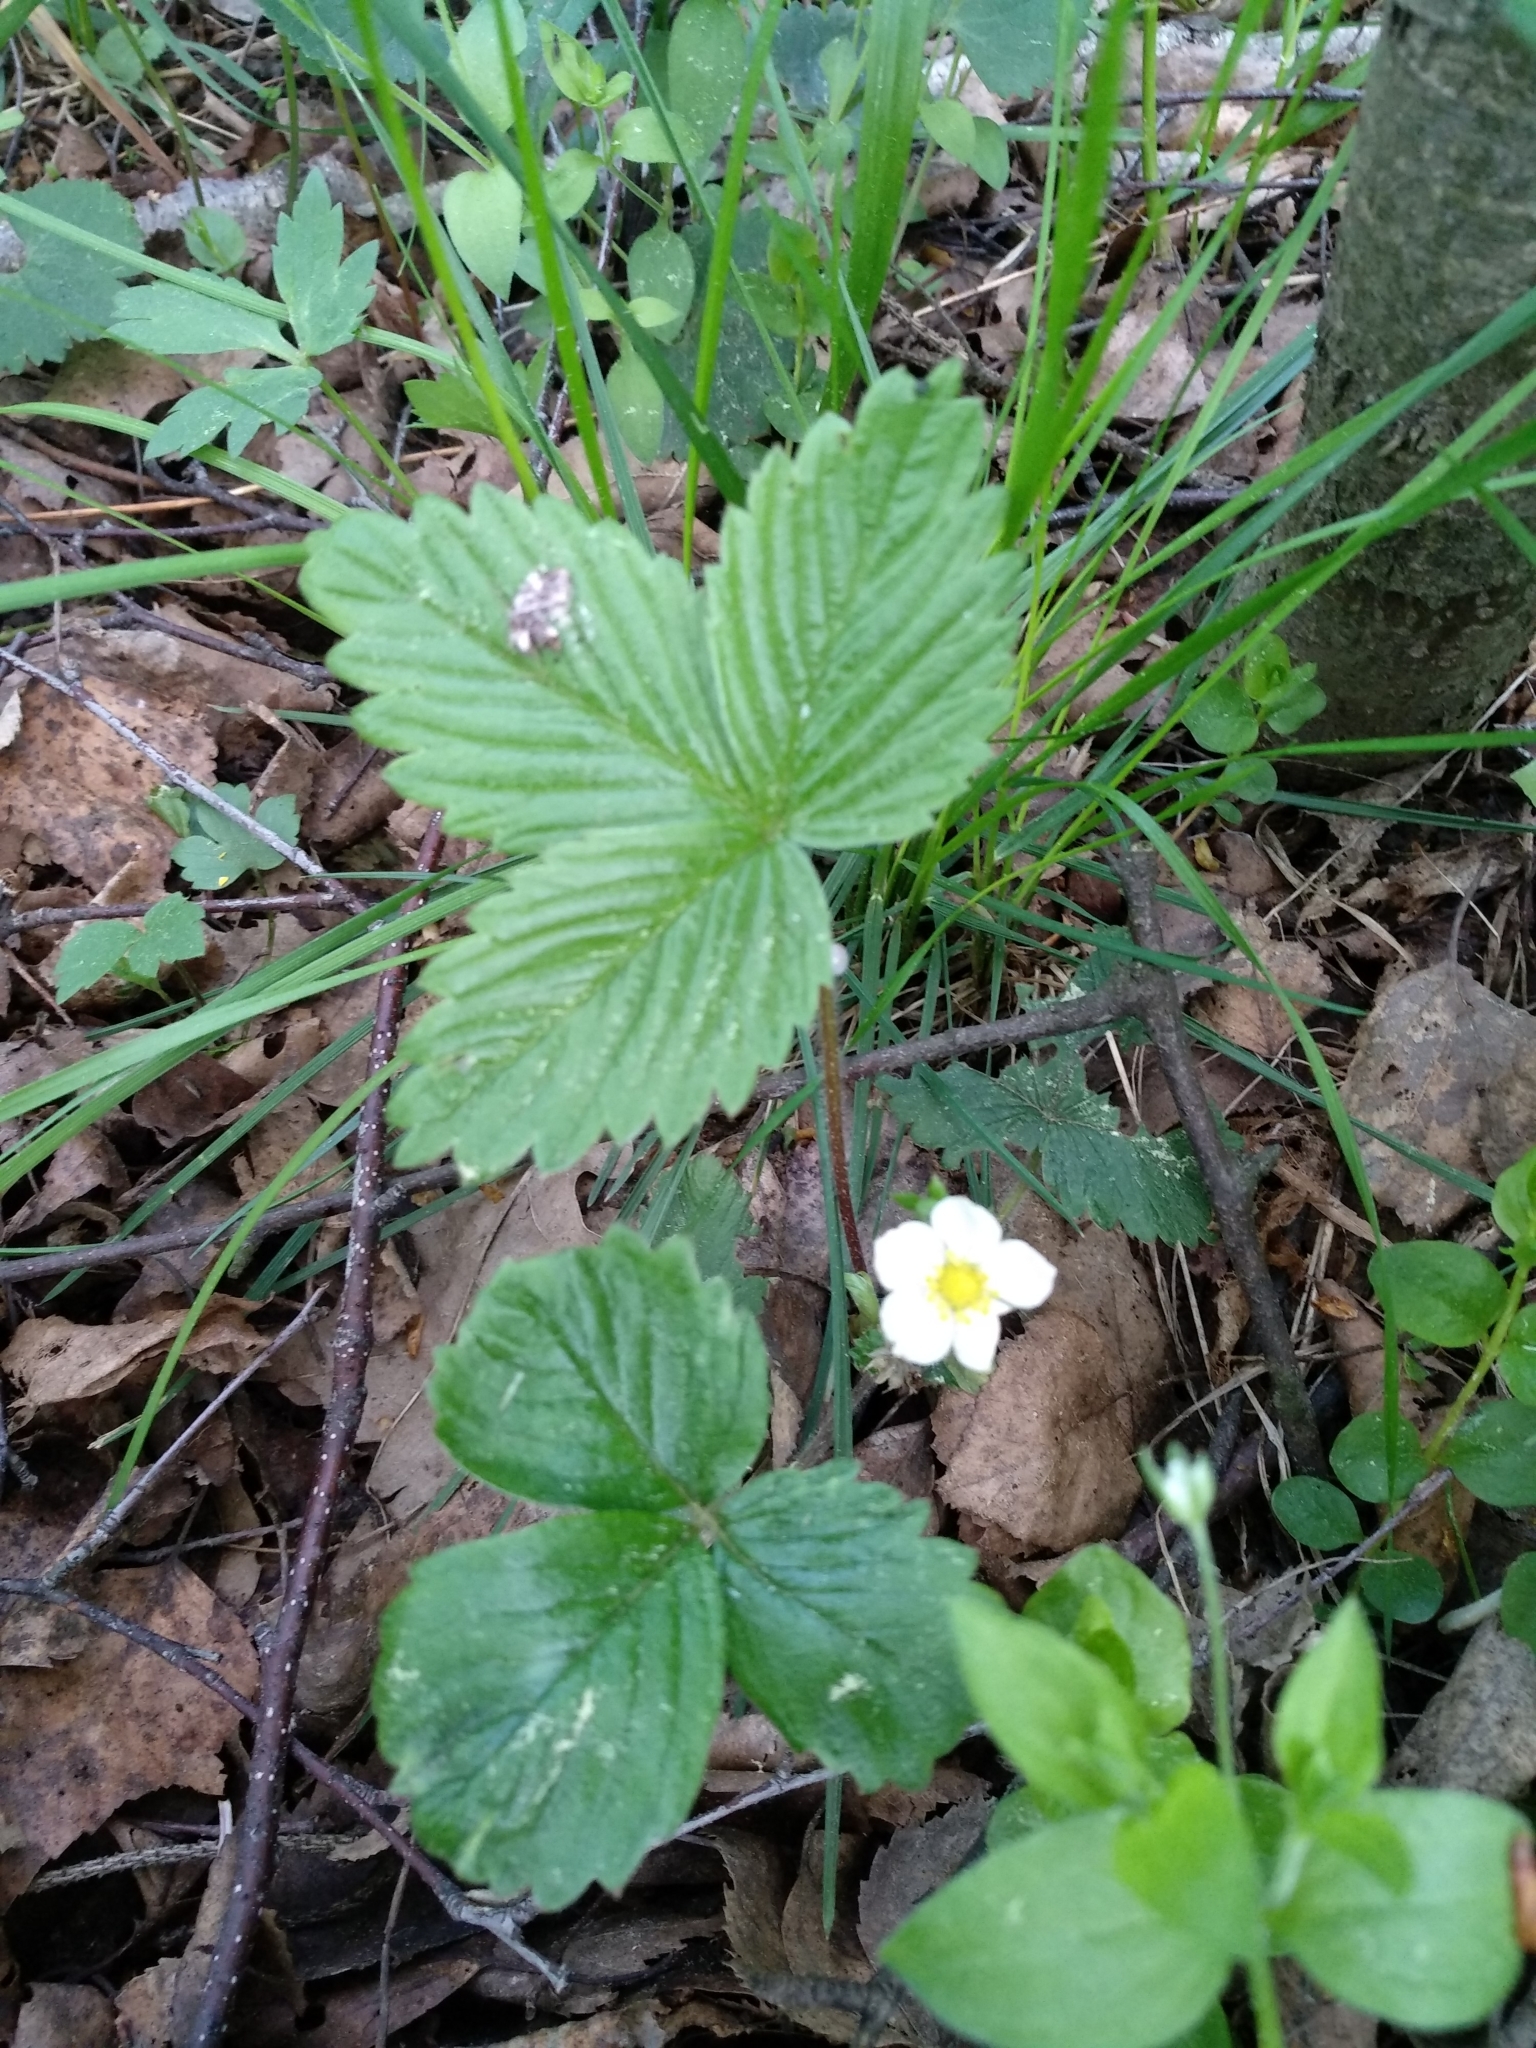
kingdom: Plantae
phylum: Tracheophyta
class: Magnoliopsida
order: Rosales
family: Rosaceae
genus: Fragaria
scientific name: Fragaria vesca
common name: Wild strawberry
